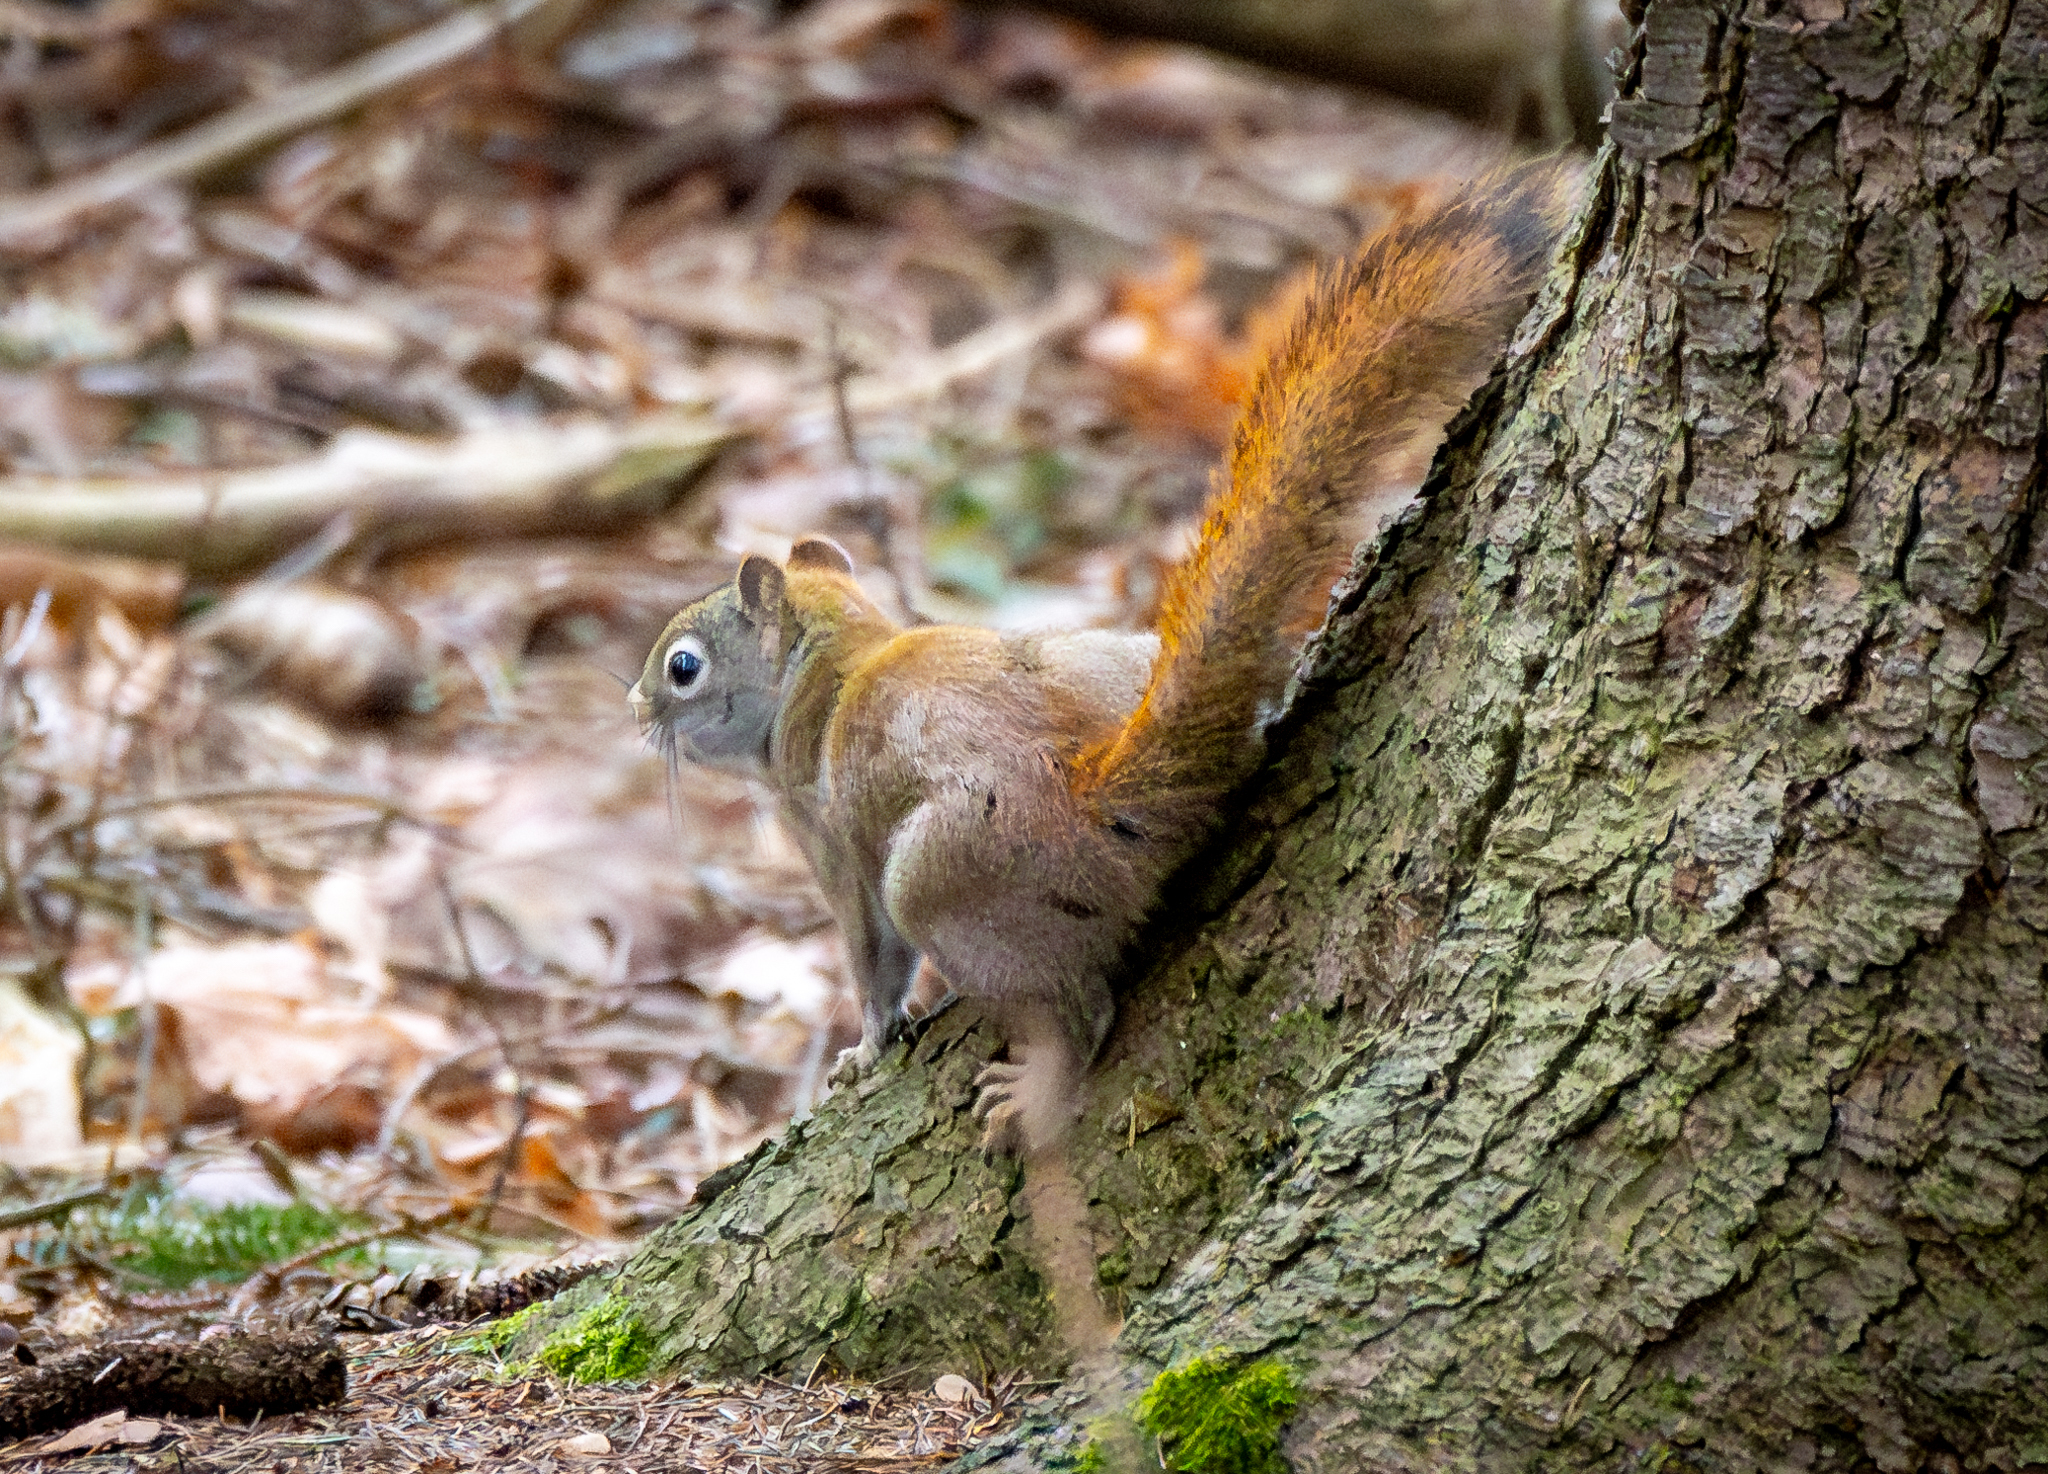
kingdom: Animalia
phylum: Chordata
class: Mammalia
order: Rodentia
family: Sciuridae
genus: Tamiasciurus
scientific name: Tamiasciurus hudsonicus
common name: Red squirrel
